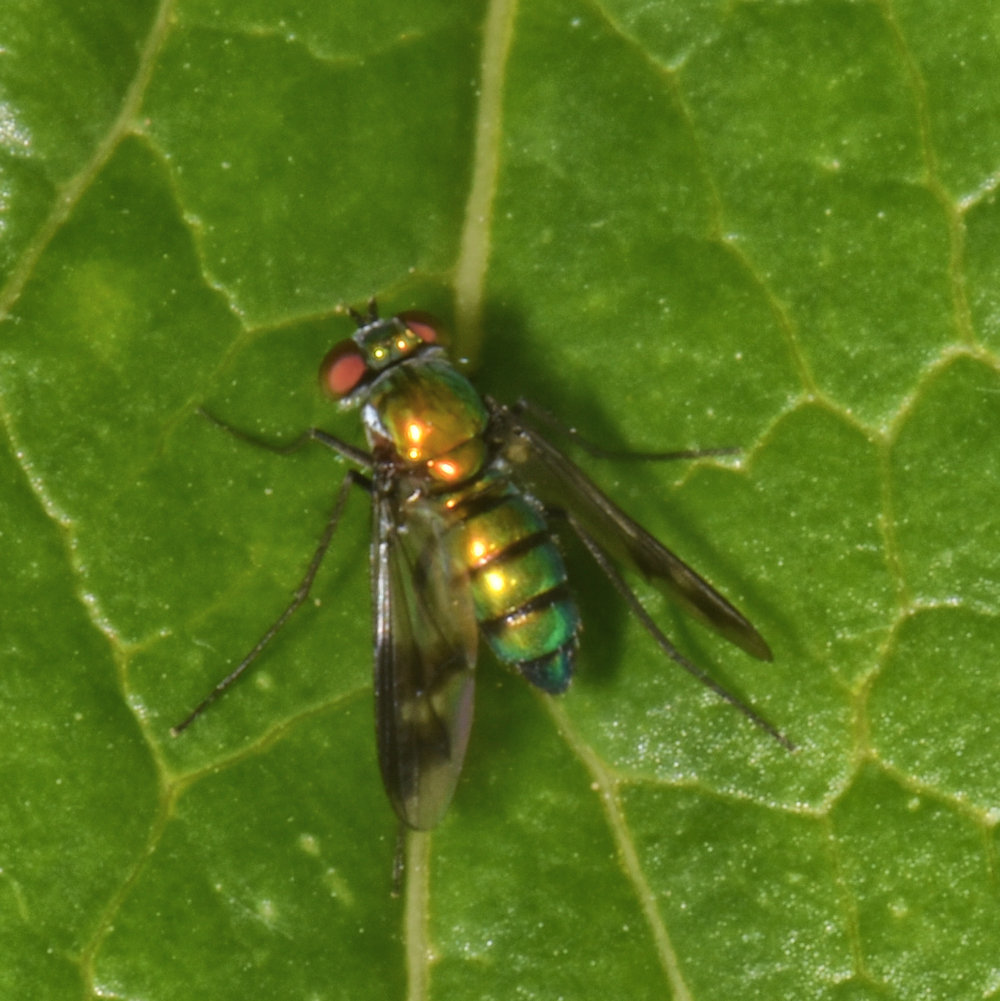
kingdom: Animalia
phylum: Arthropoda
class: Insecta
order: Diptera
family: Dolichopodidae
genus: Condylostylus
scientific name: Condylostylus patibulatus
